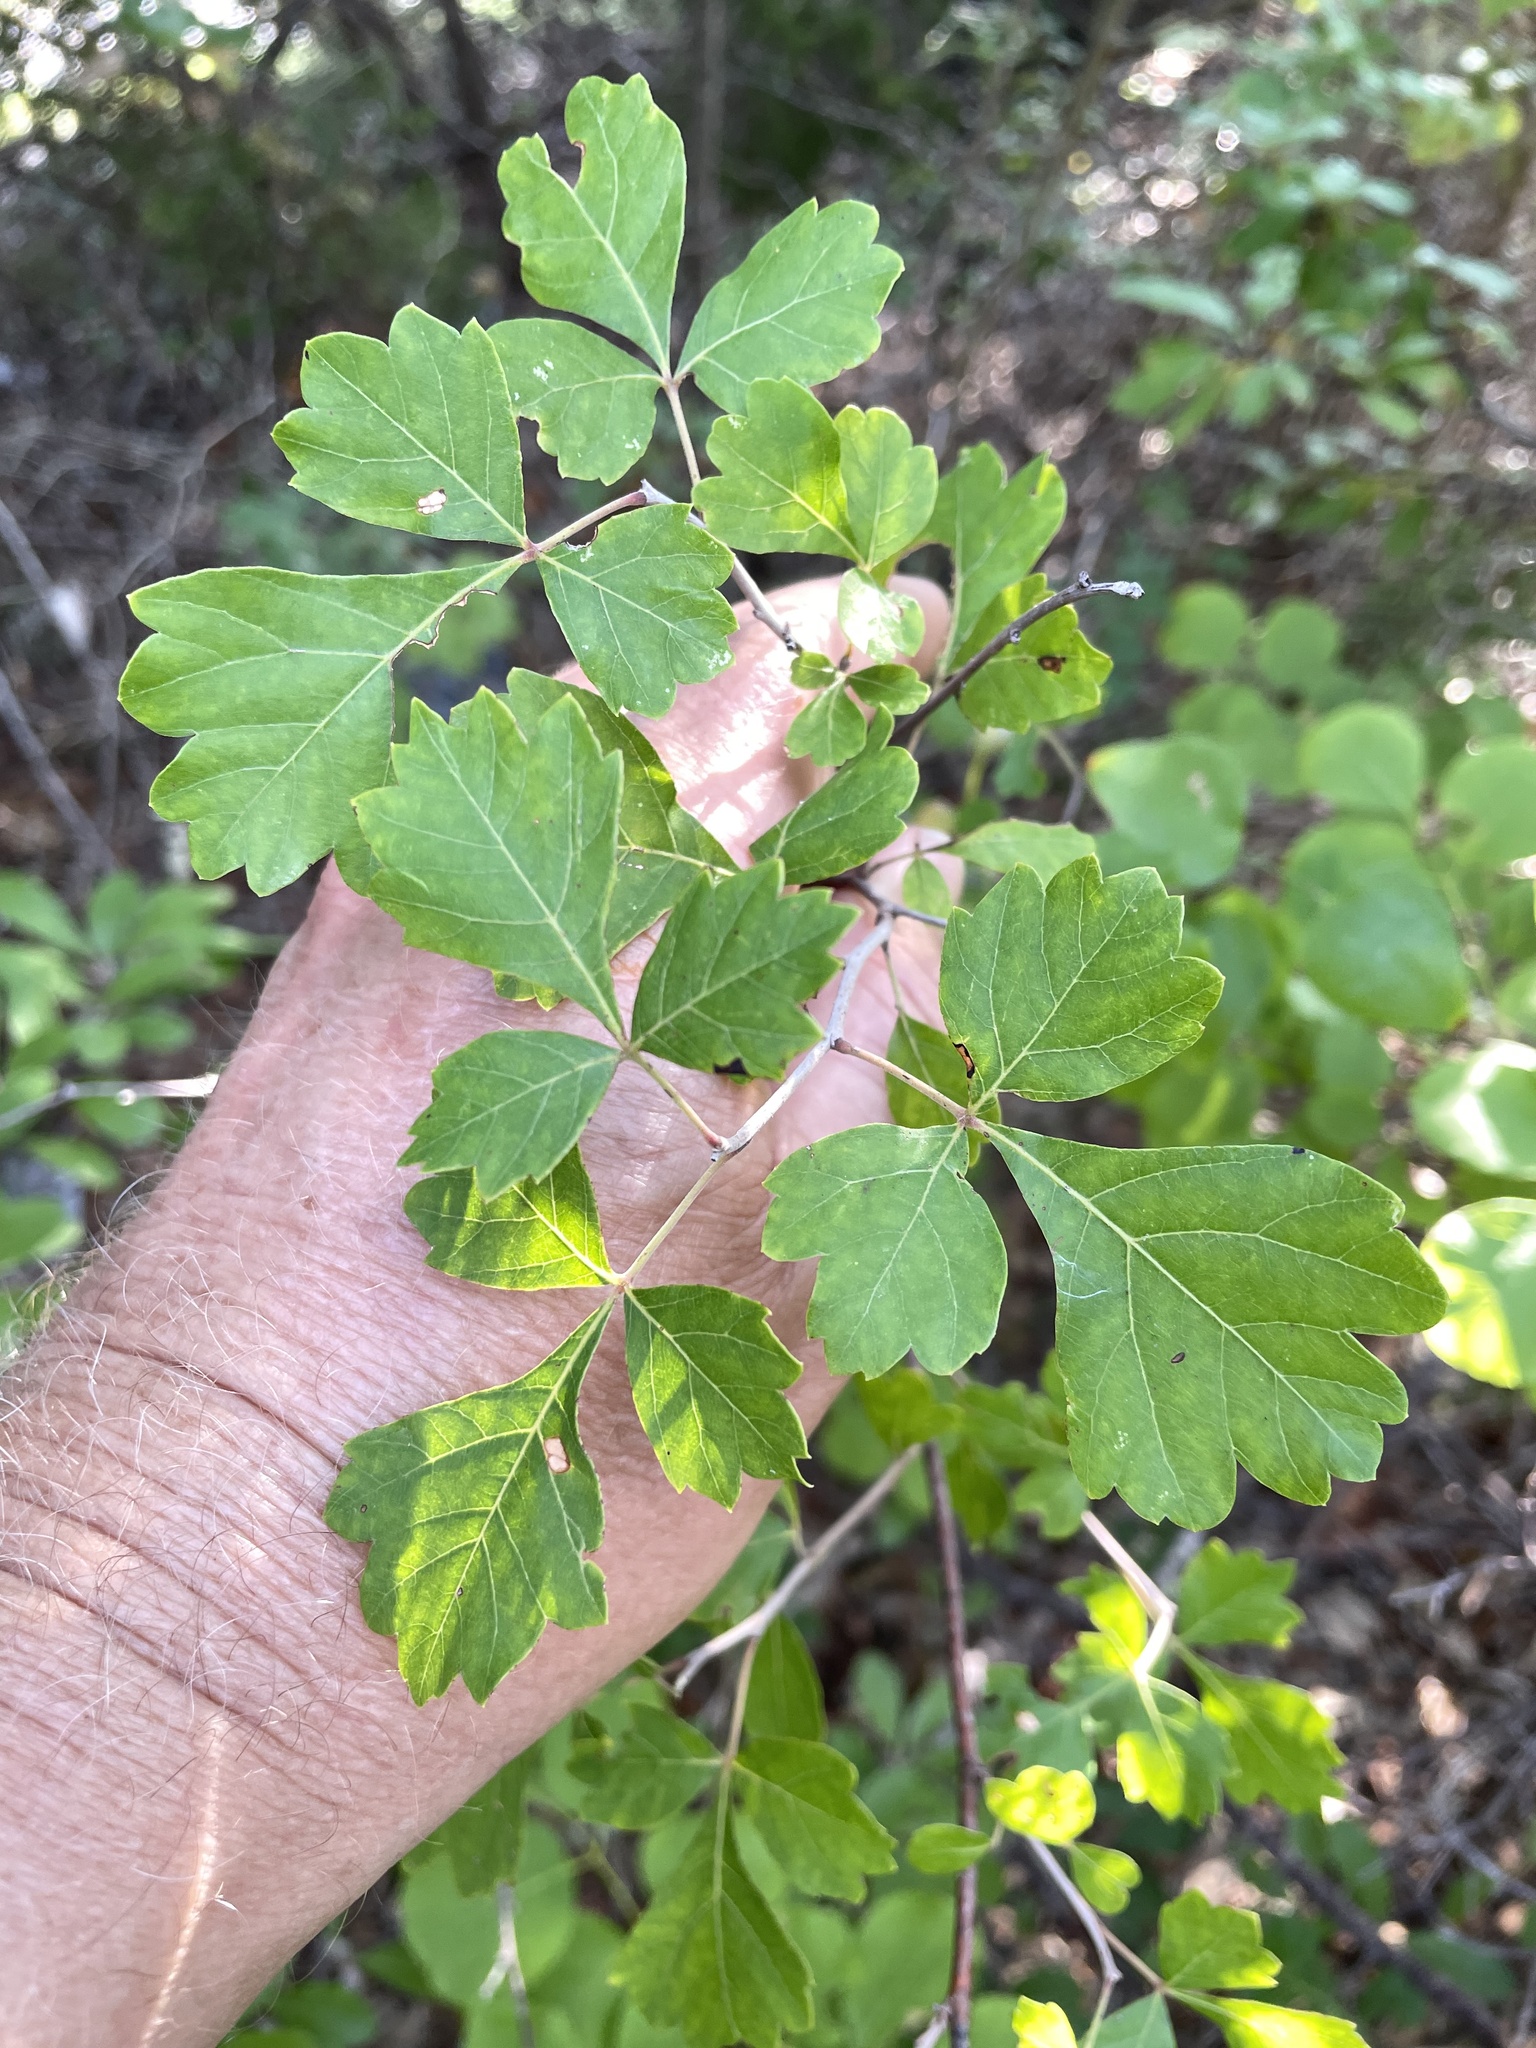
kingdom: Plantae
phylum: Tracheophyta
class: Magnoliopsida
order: Sapindales
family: Anacardiaceae
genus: Rhus
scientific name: Rhus aromatica
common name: Aromatic sumac
